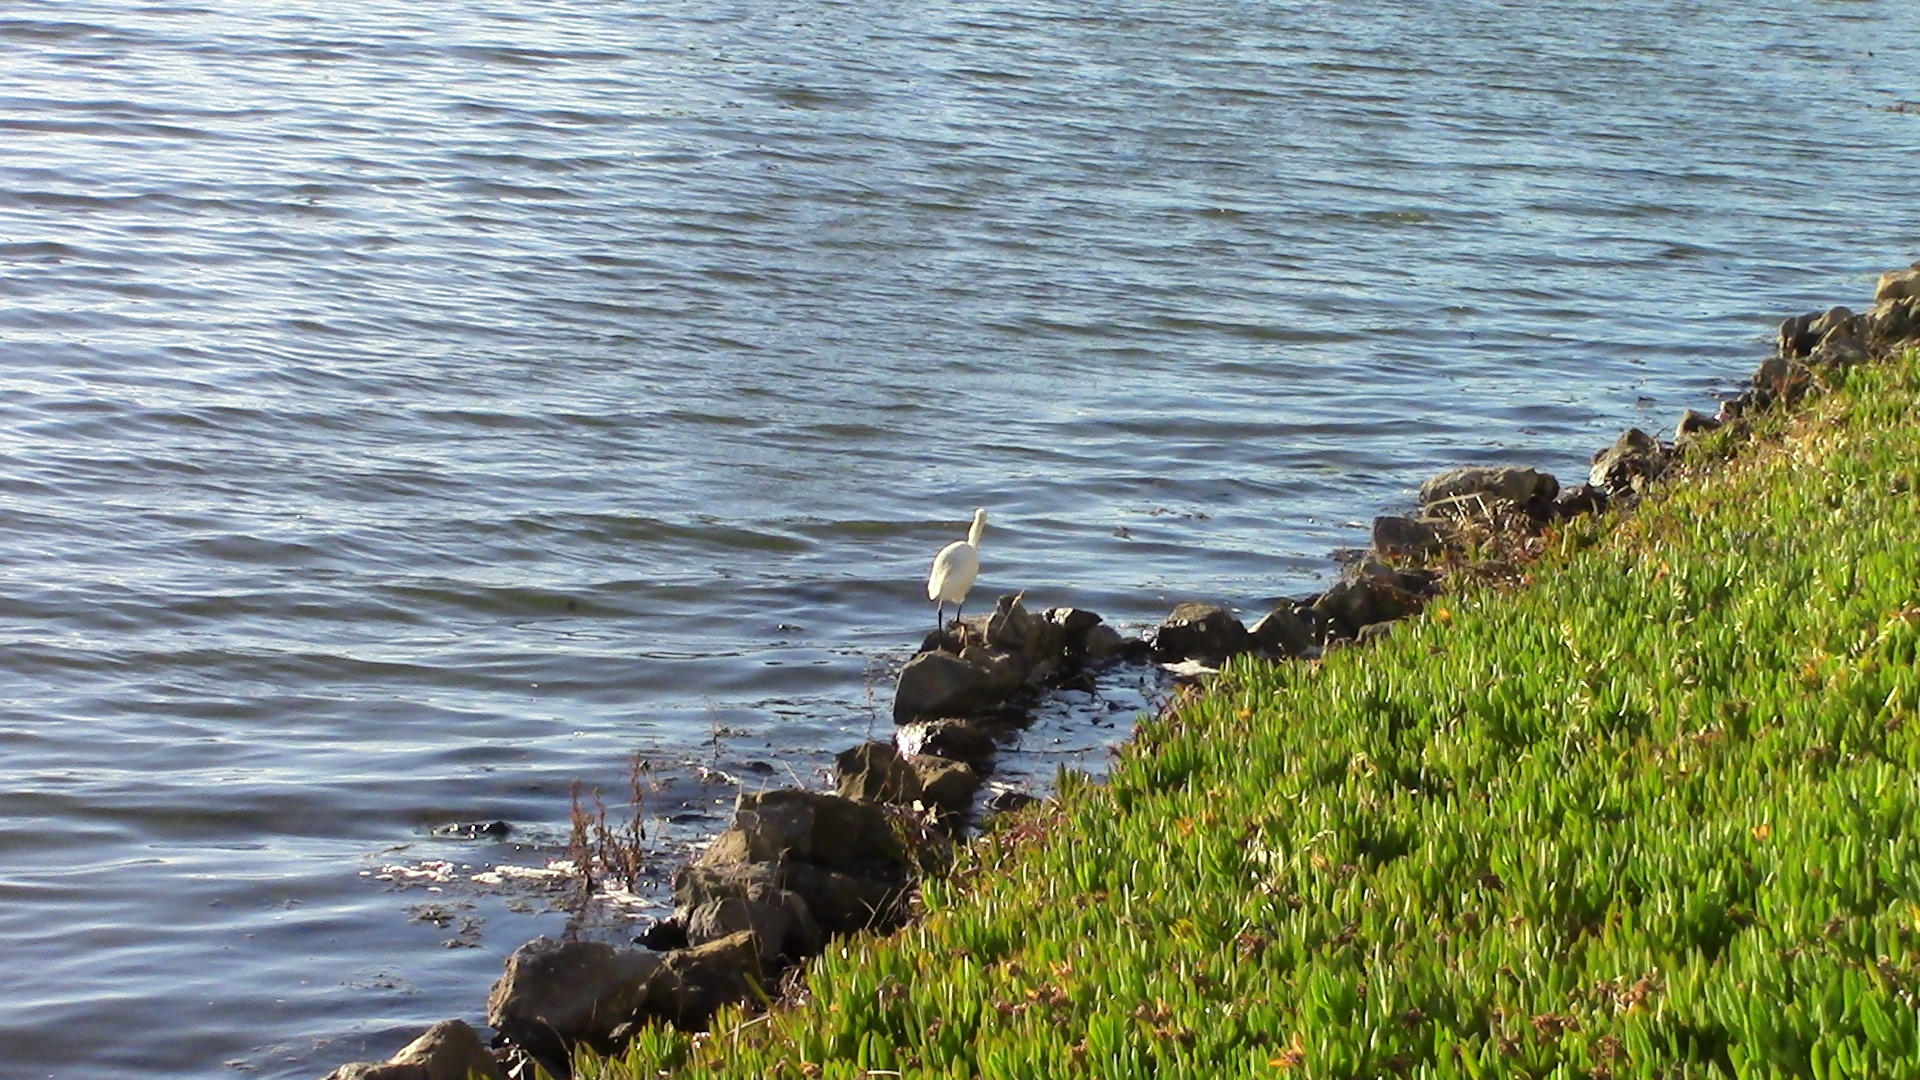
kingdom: Animalia
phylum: Chordata
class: Aves
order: Pelecaniformes
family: Ardeidae
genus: Egretta
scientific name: Egretta thula
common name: Snowy egret
